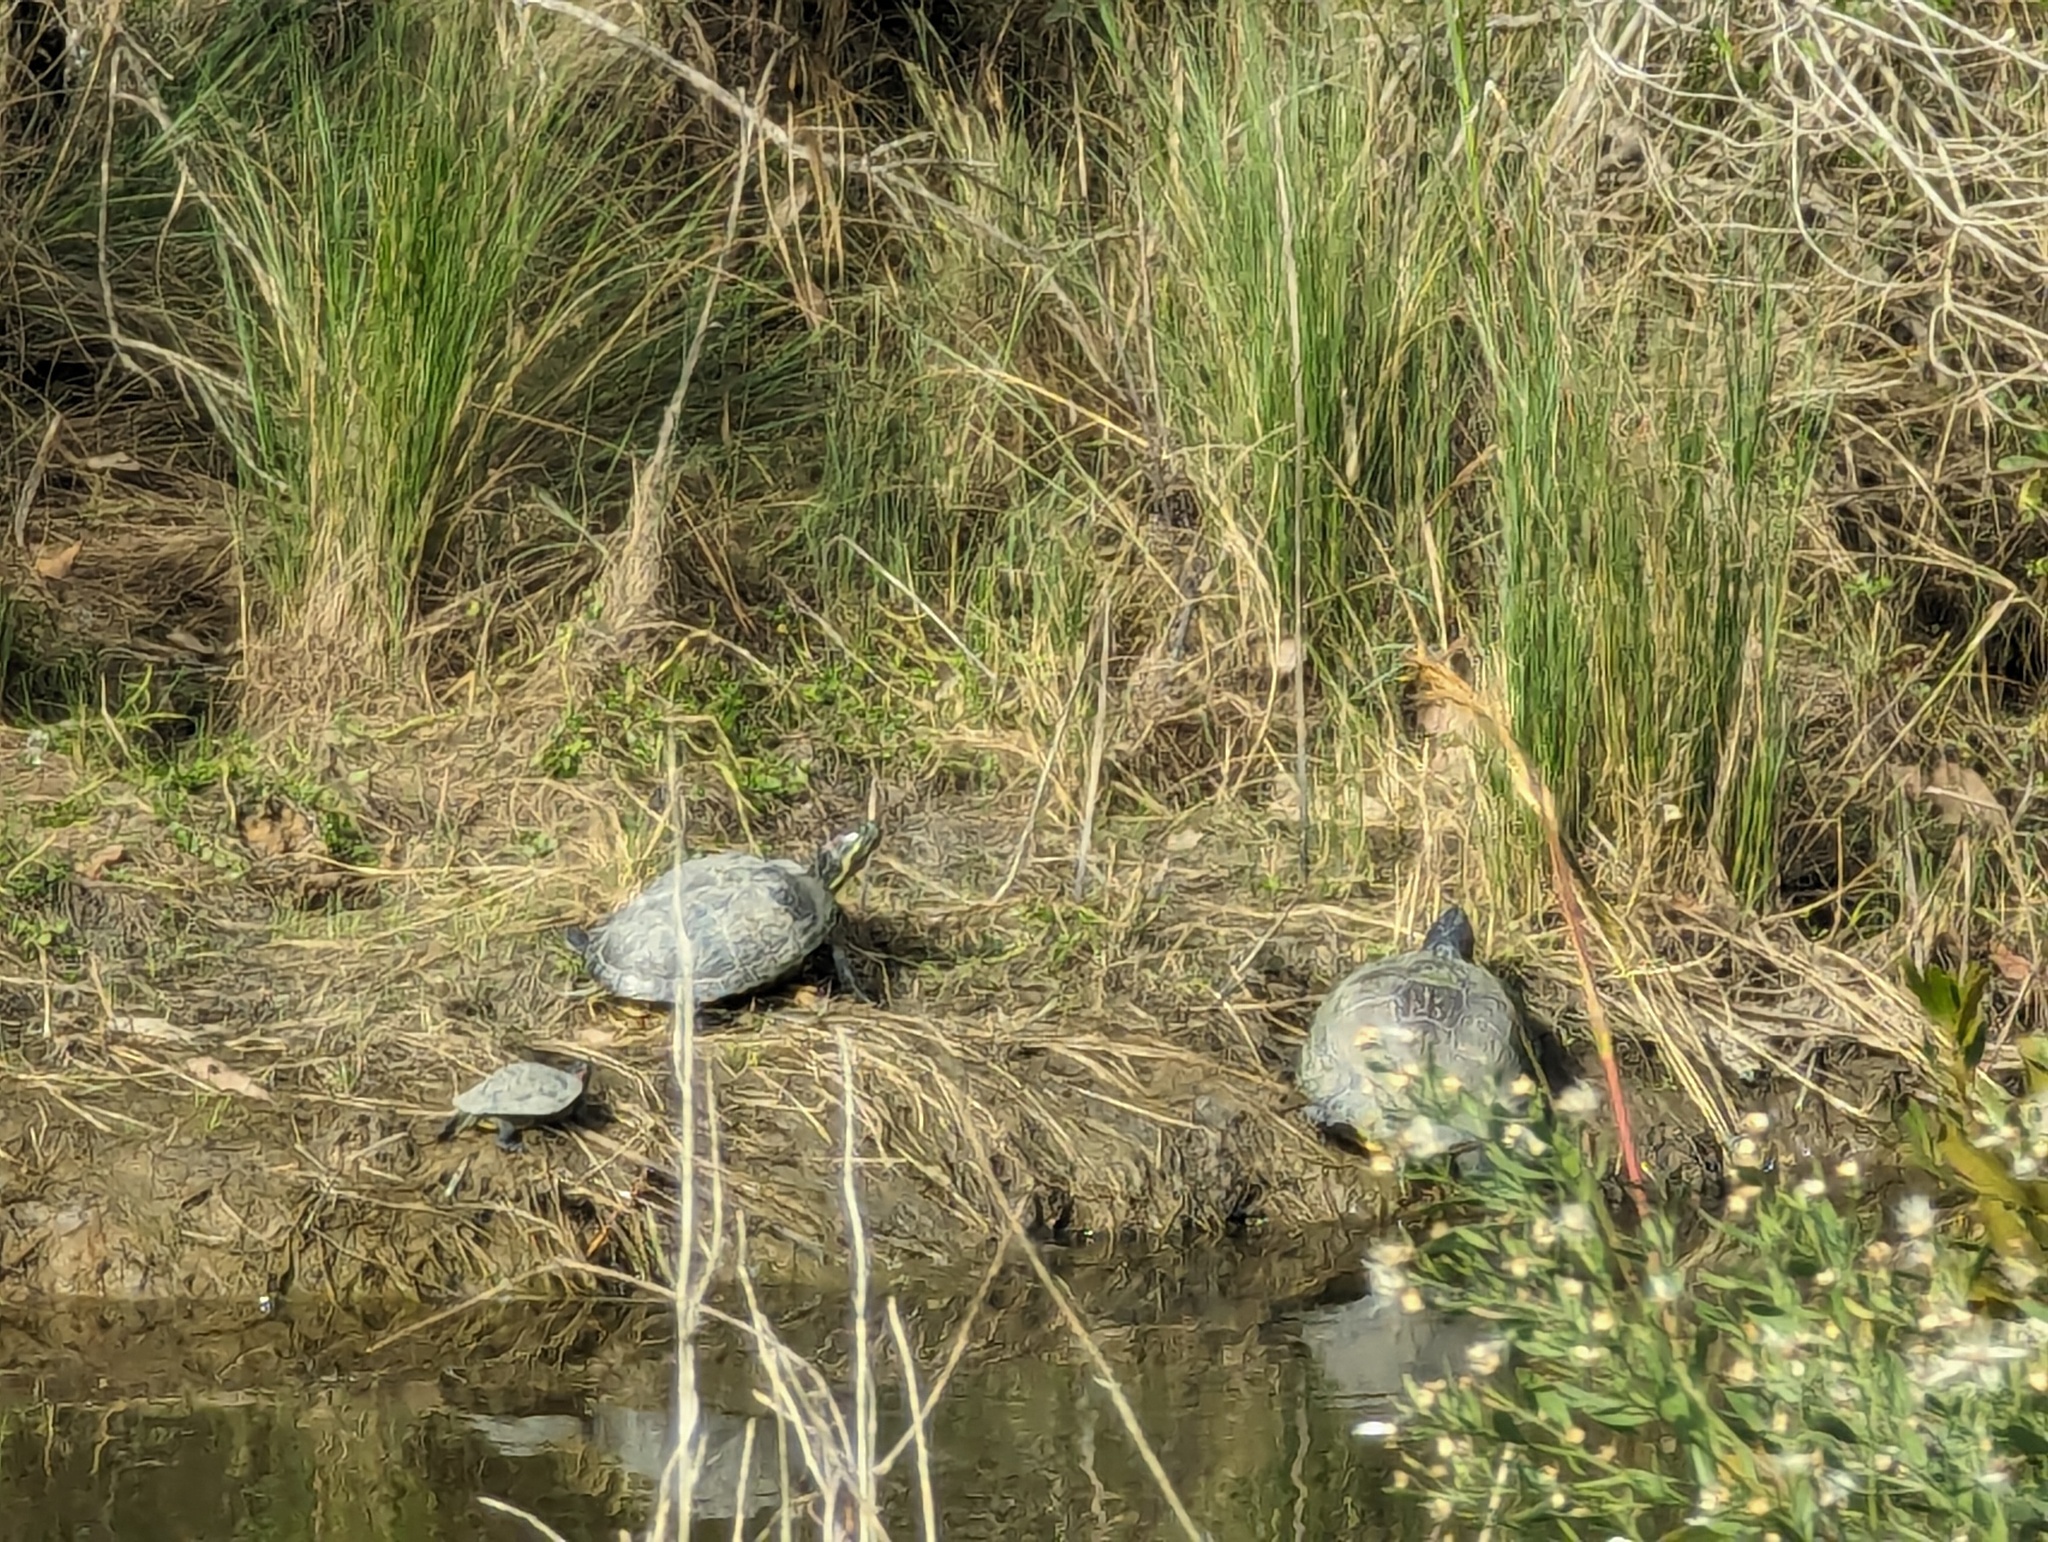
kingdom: Animalia
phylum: Chordata
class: Testudines
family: Emydidae
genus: Trachemys
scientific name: Trachemys scripta
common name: Slider
